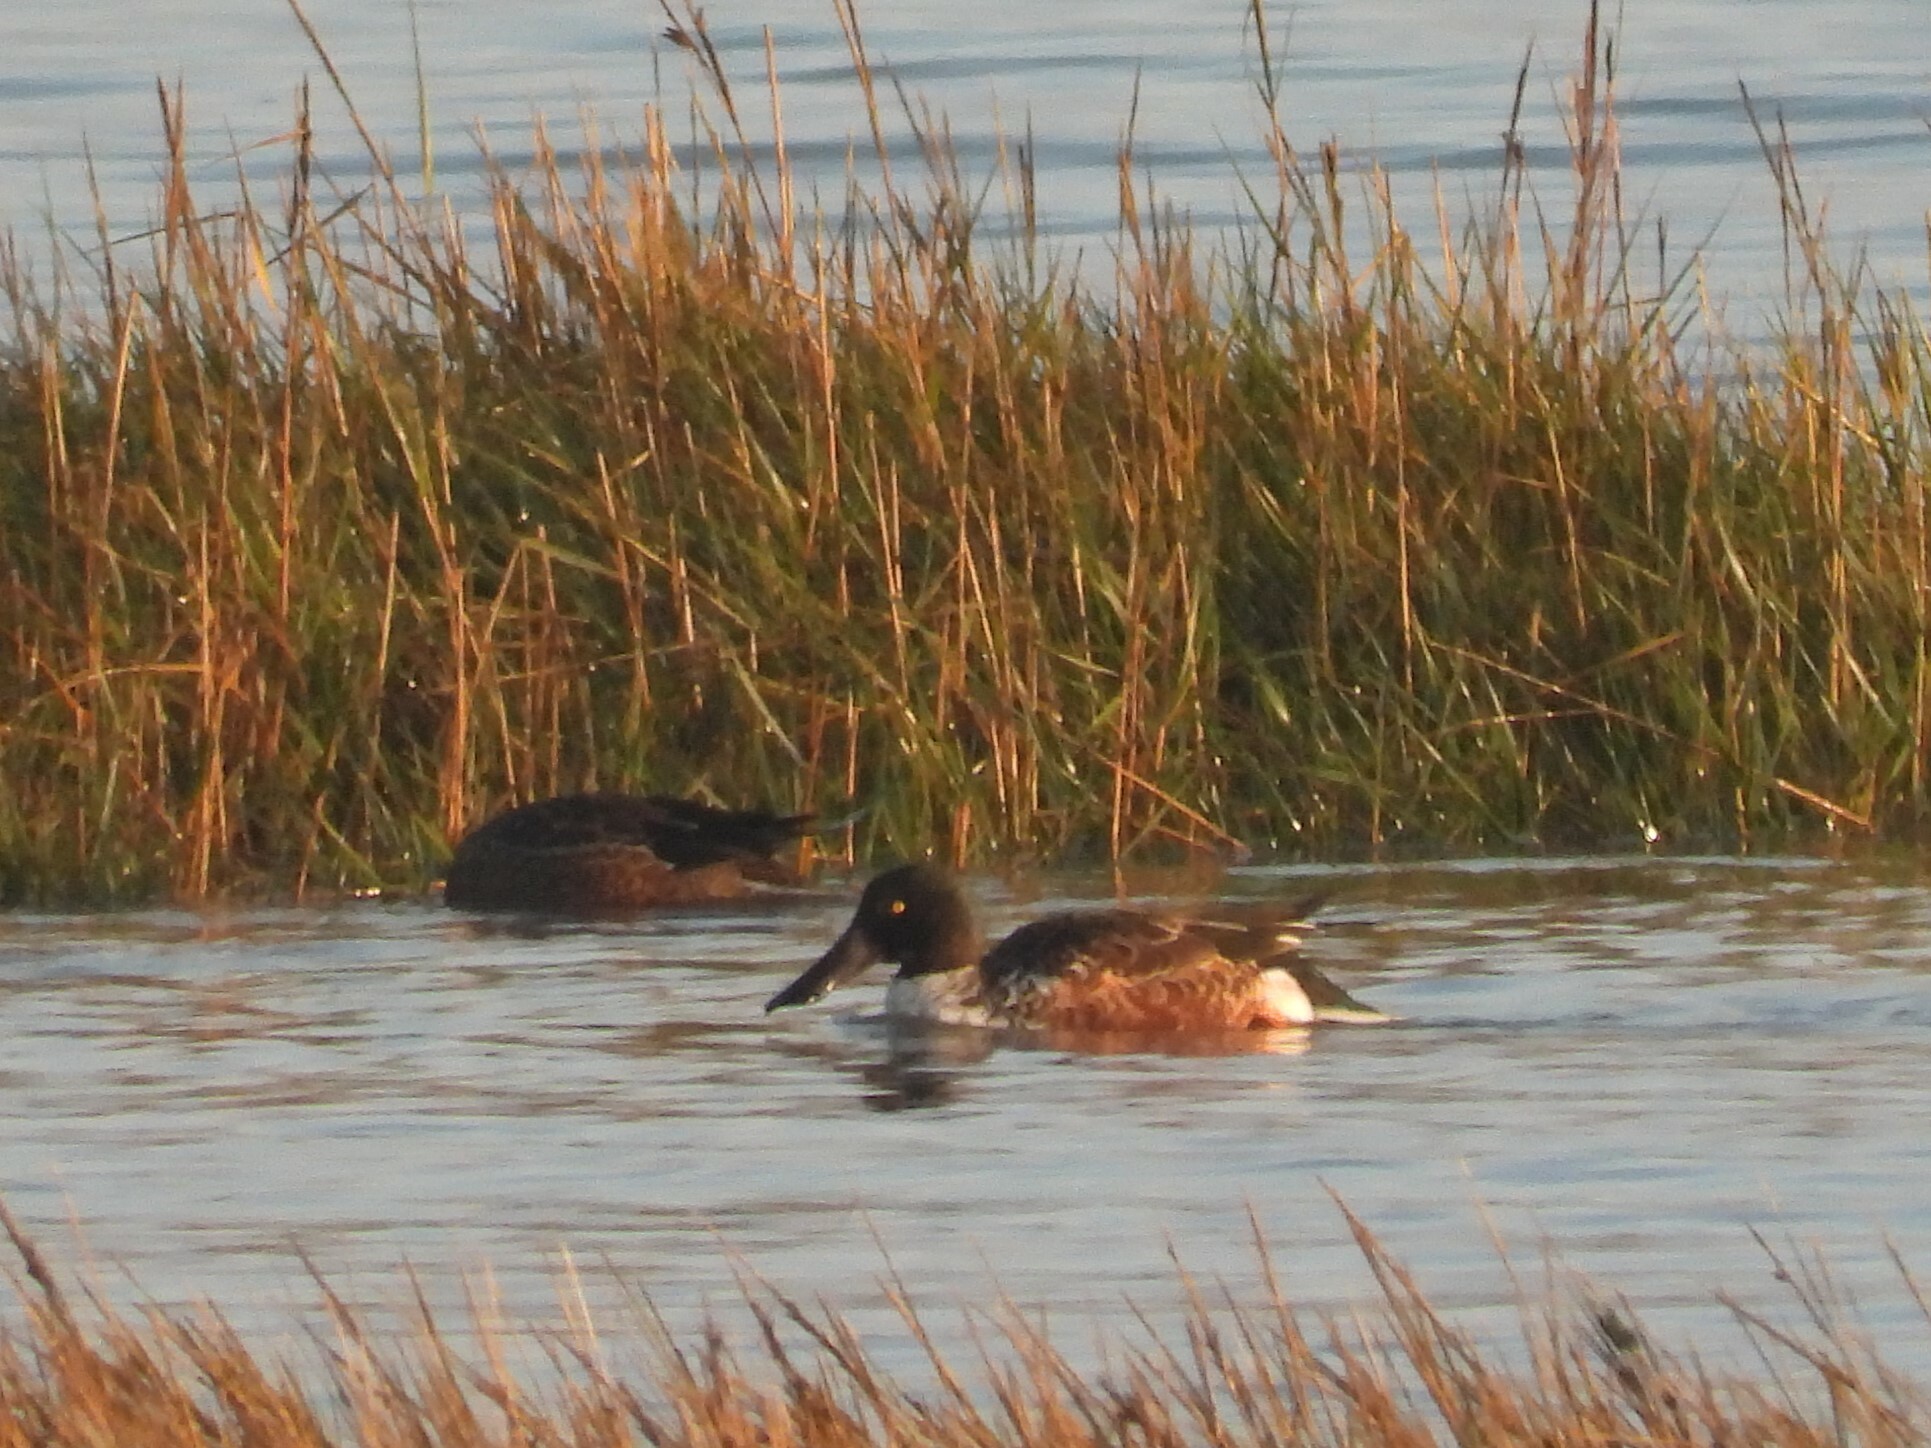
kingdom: Animalia
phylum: Chordata
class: Aves
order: Anseriformes
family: Anatidae
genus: Spatula
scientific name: Spatula clypeata
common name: Northern shoveler
